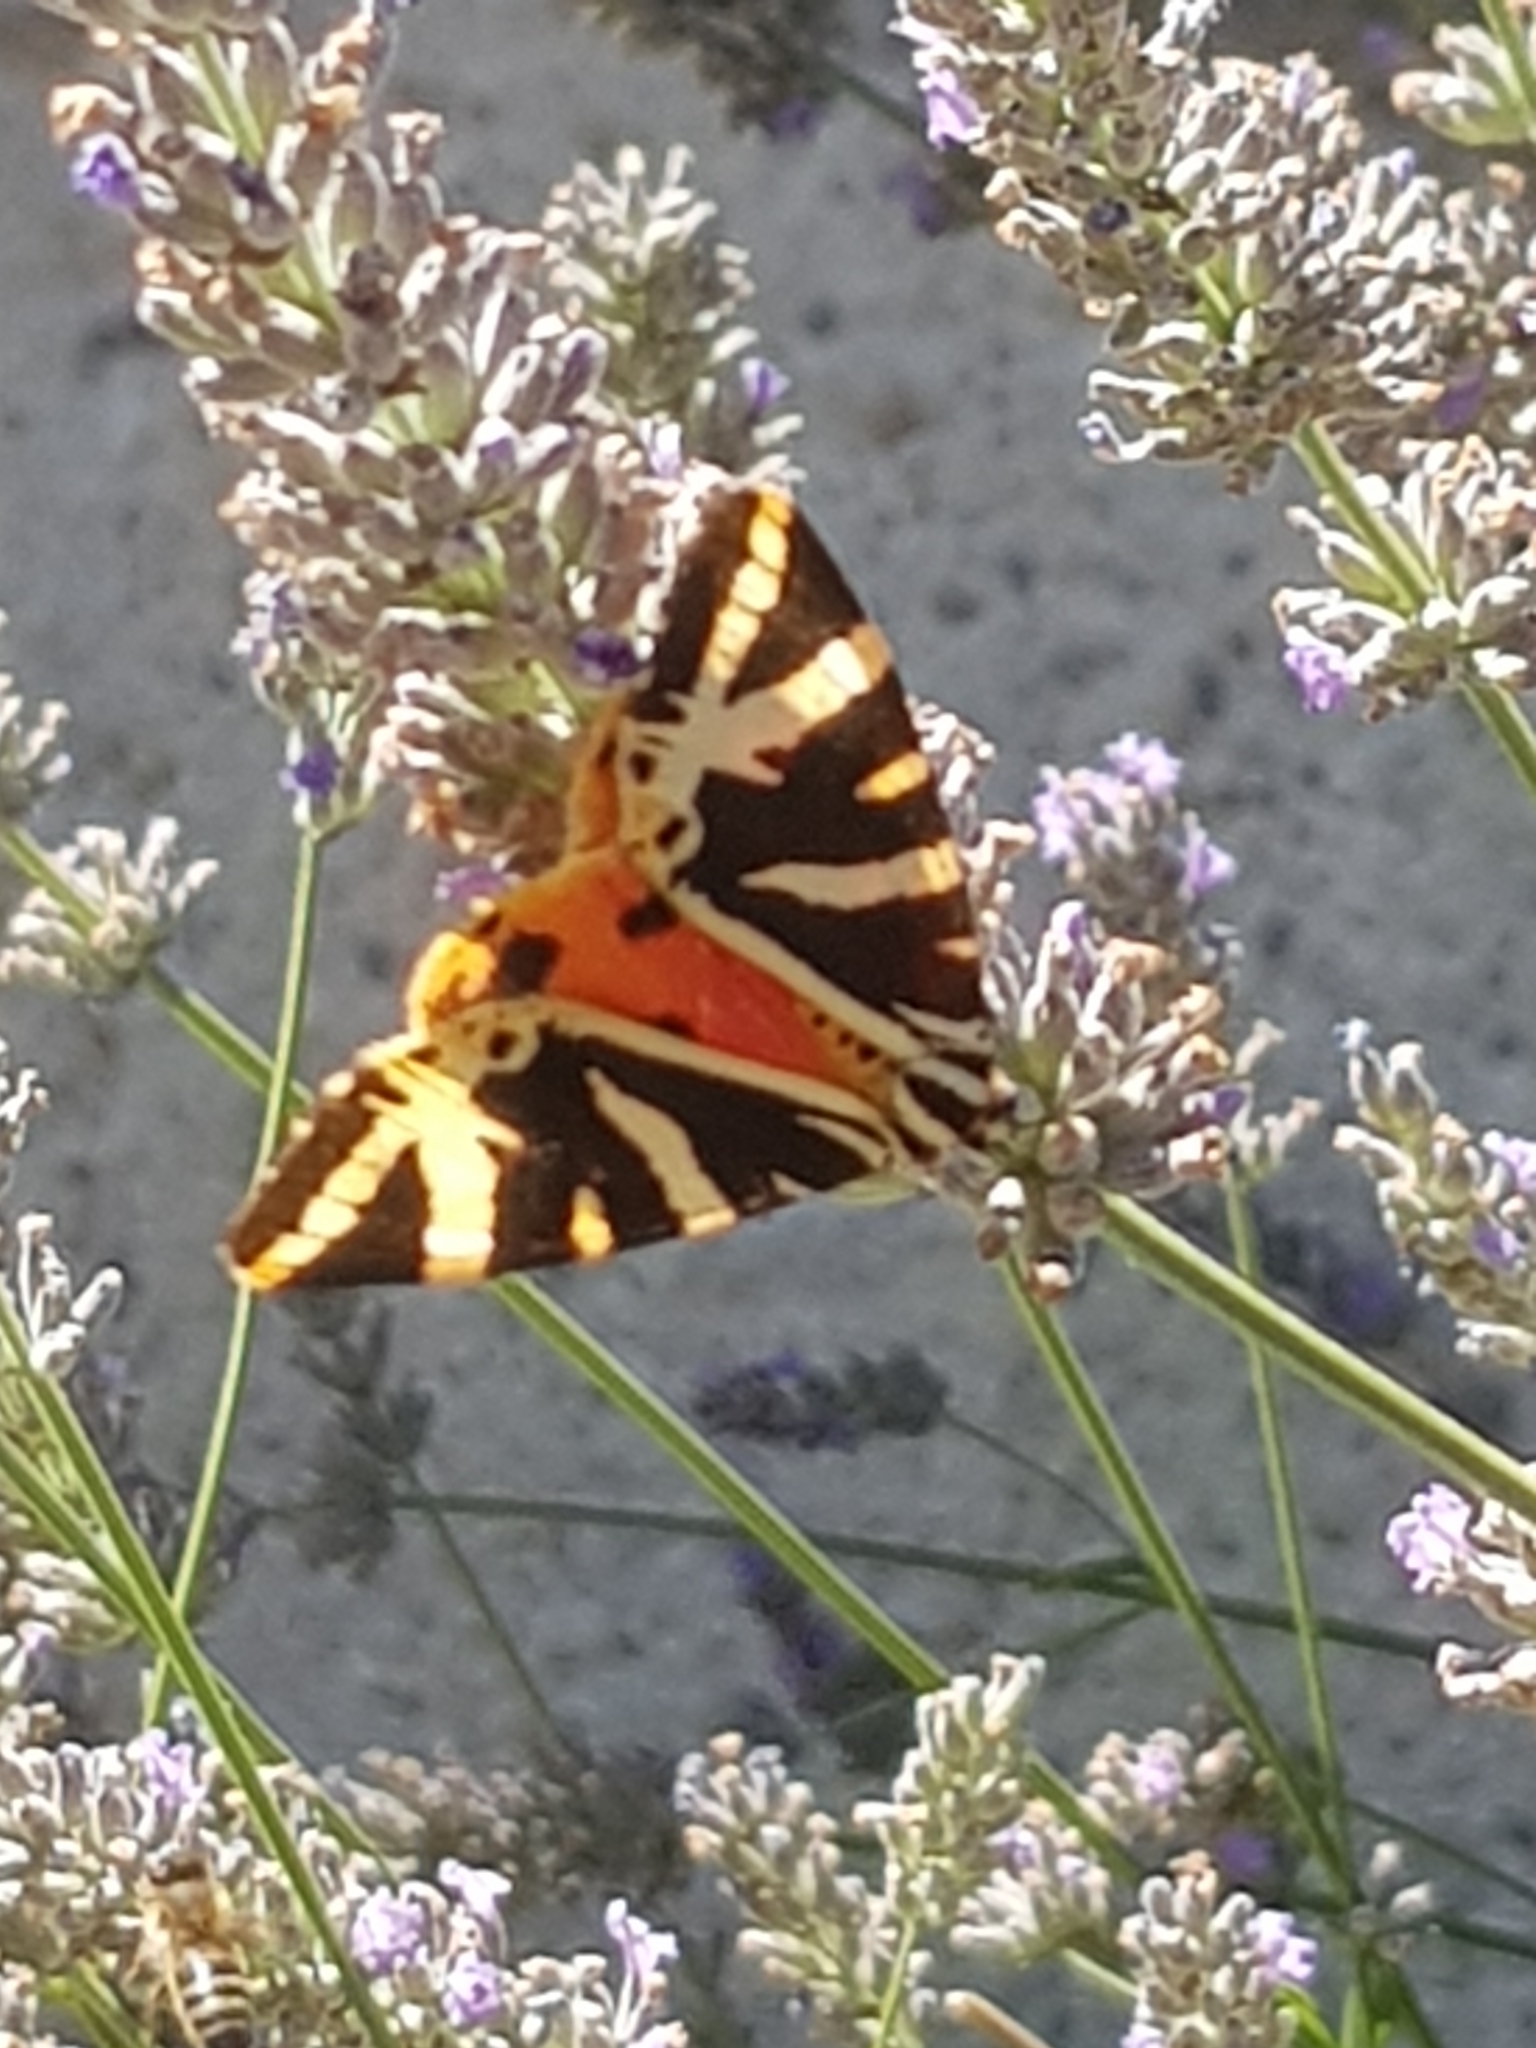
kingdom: Animalia
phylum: Arthropoda
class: Insecta
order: Lepidoptera
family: Erebidae
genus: Euplagia
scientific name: Euplagia quadripunctaria
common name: Jersey tiger
